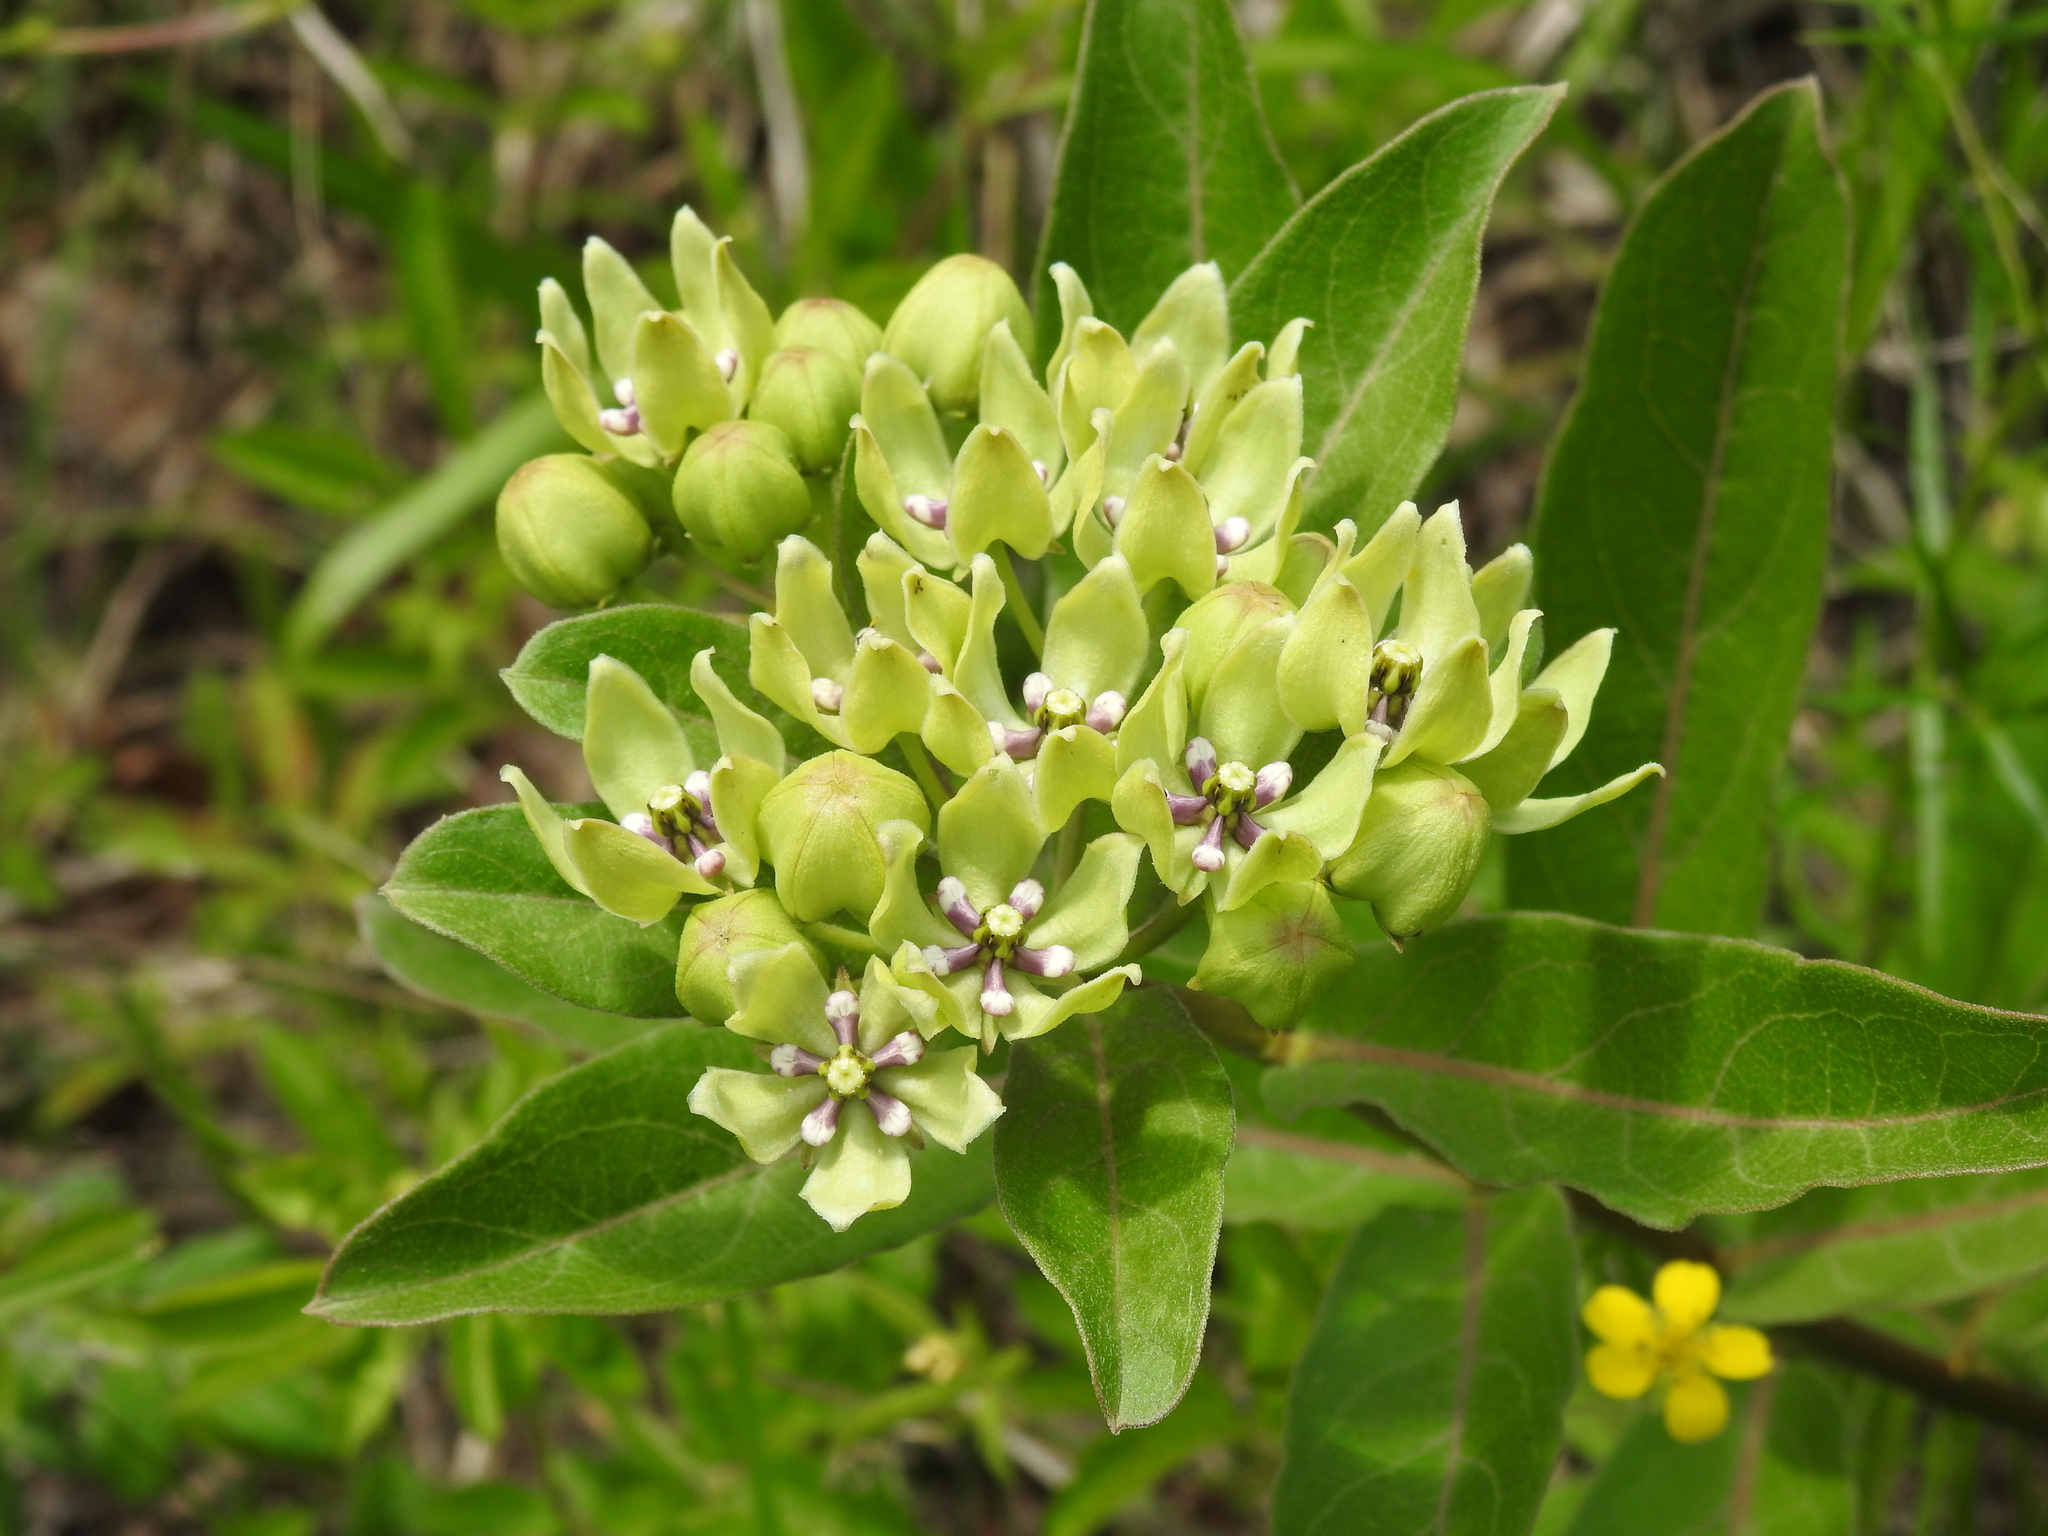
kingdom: Plantae
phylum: Tracheophyta
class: Magnoliopsida
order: Gentianales
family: Apocynaceae
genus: Asclepias
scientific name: Asclepias viridis
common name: Antelope-horns
